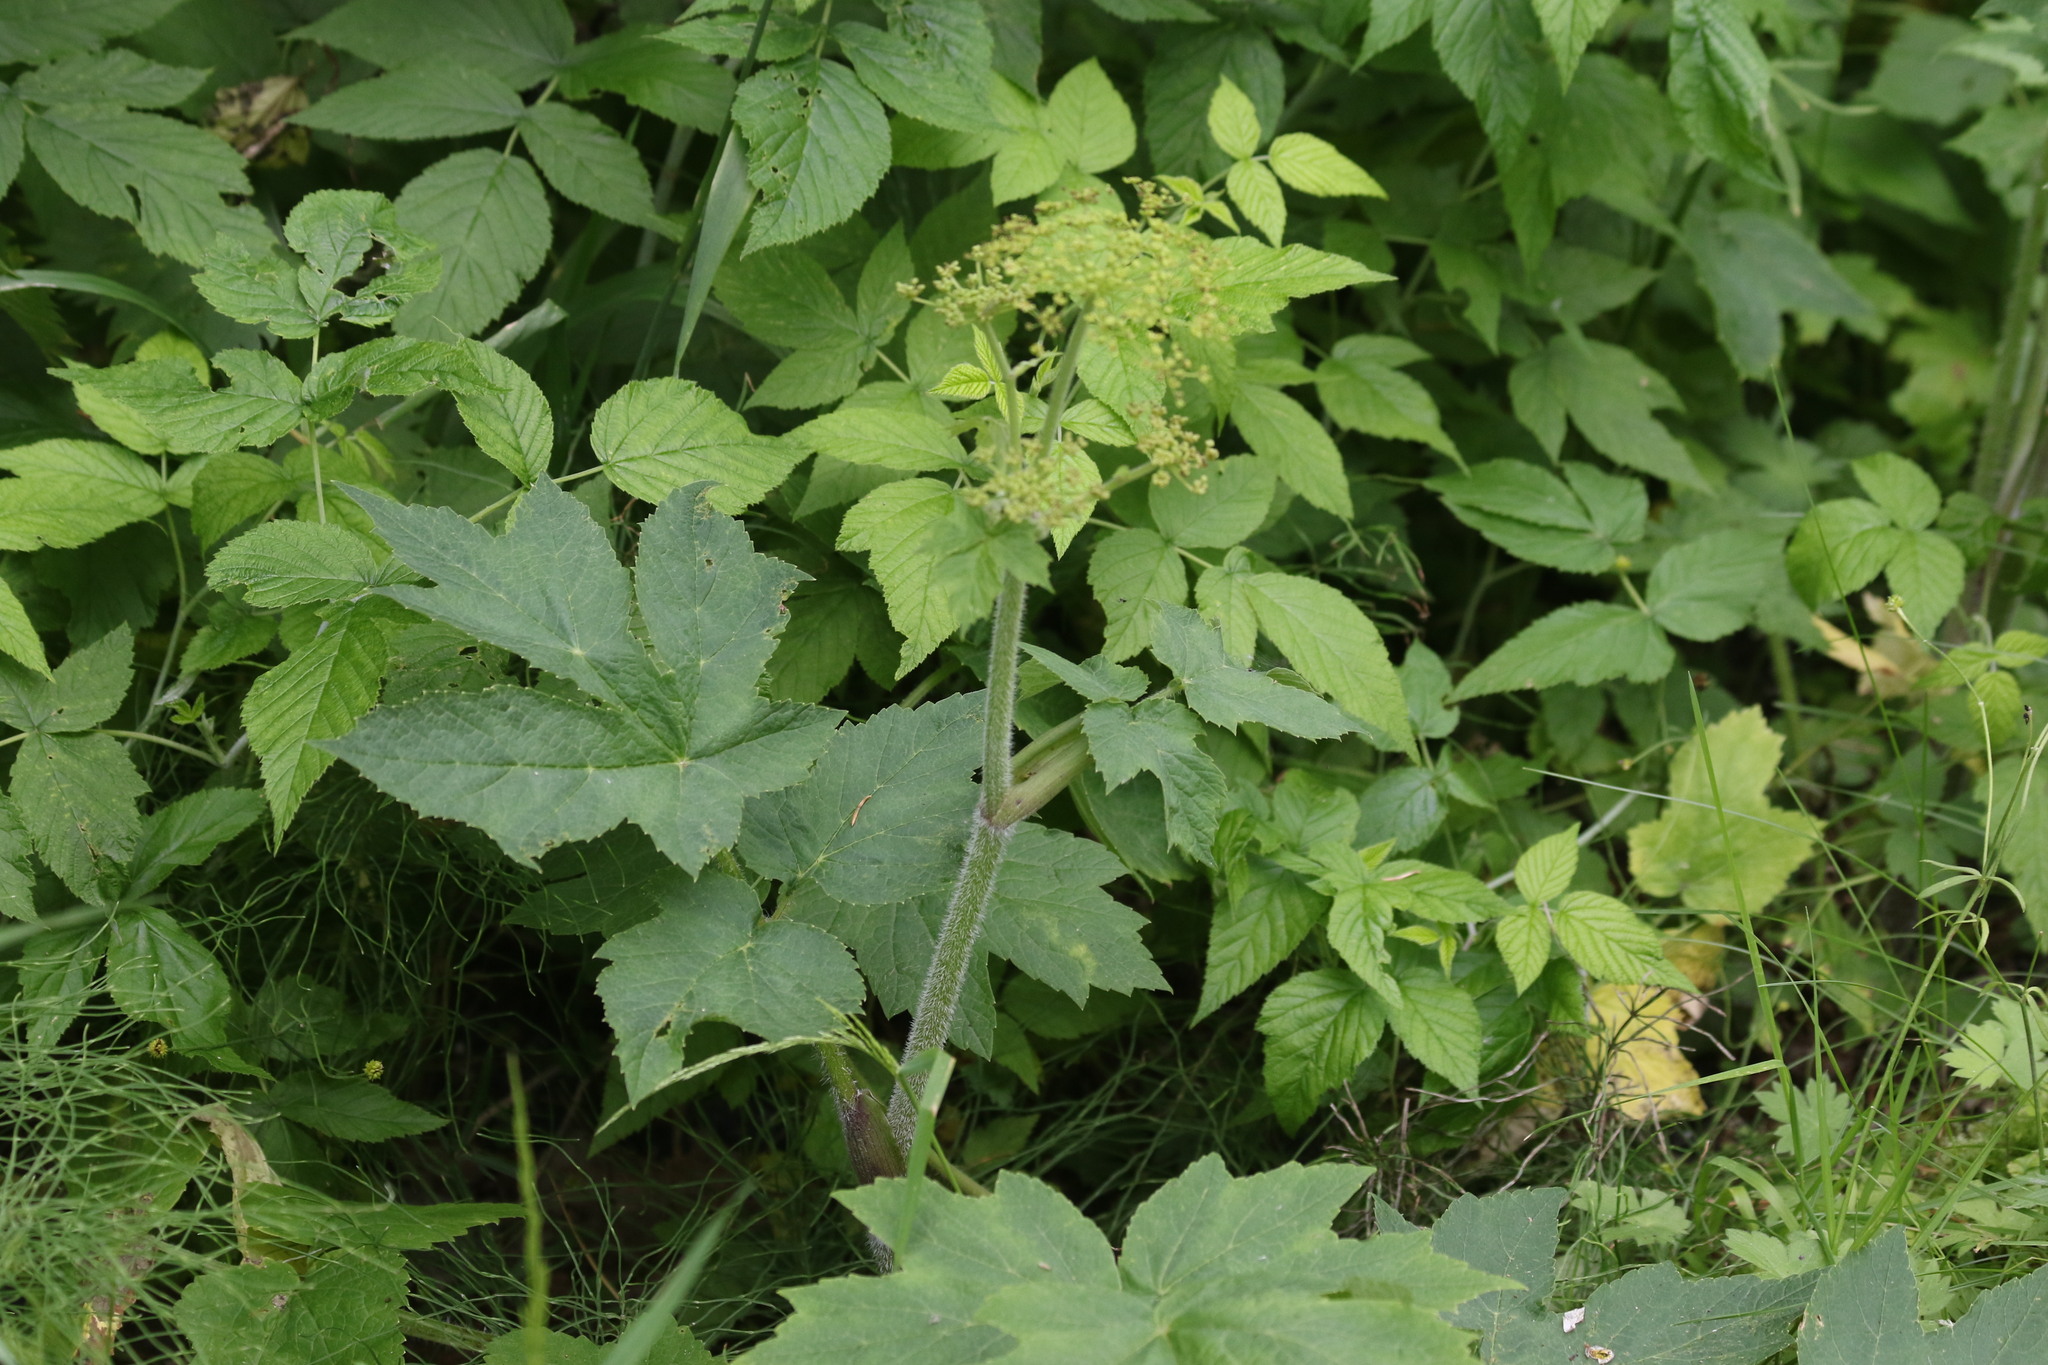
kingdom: Plantae
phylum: Tracheophyta
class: Magnoliopsida
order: Apiales
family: Apiaceae
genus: Heracleum
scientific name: Heracleum sphondylium
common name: Hogweed
